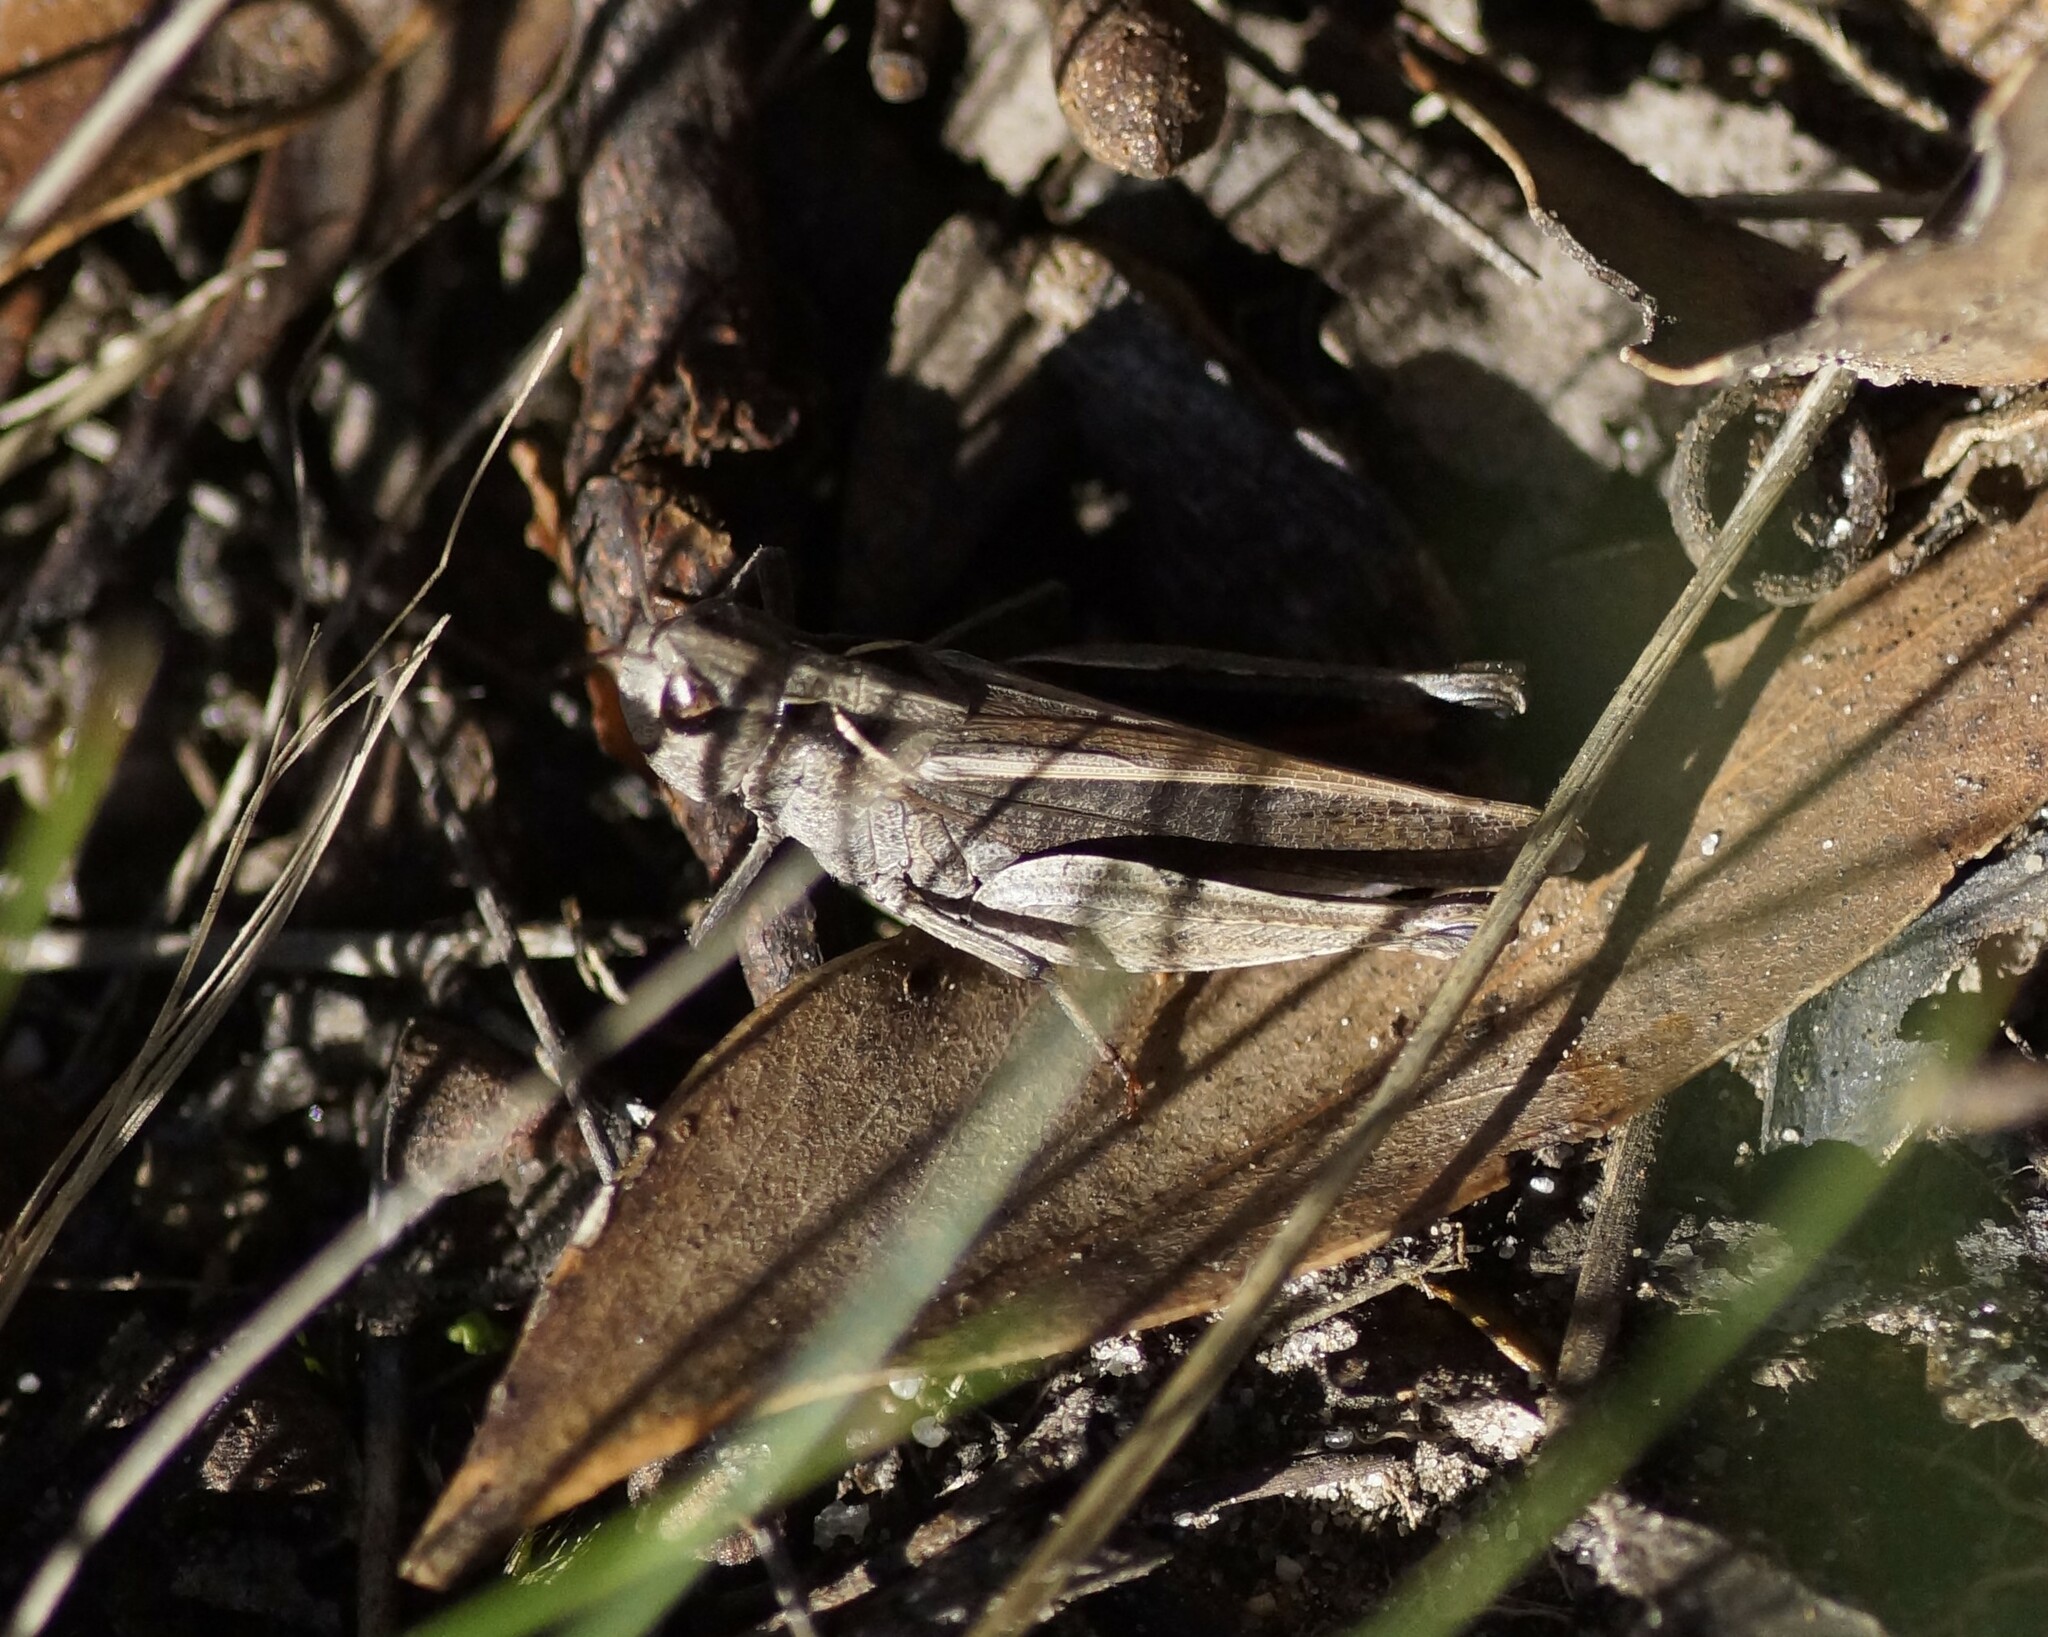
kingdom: Animalia
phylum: Arthropoda
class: Insecta
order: Orthoptera
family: Acrididae
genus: Cryptobothrus
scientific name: Cryptobothrus chrysophorus
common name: Golden bandwing
